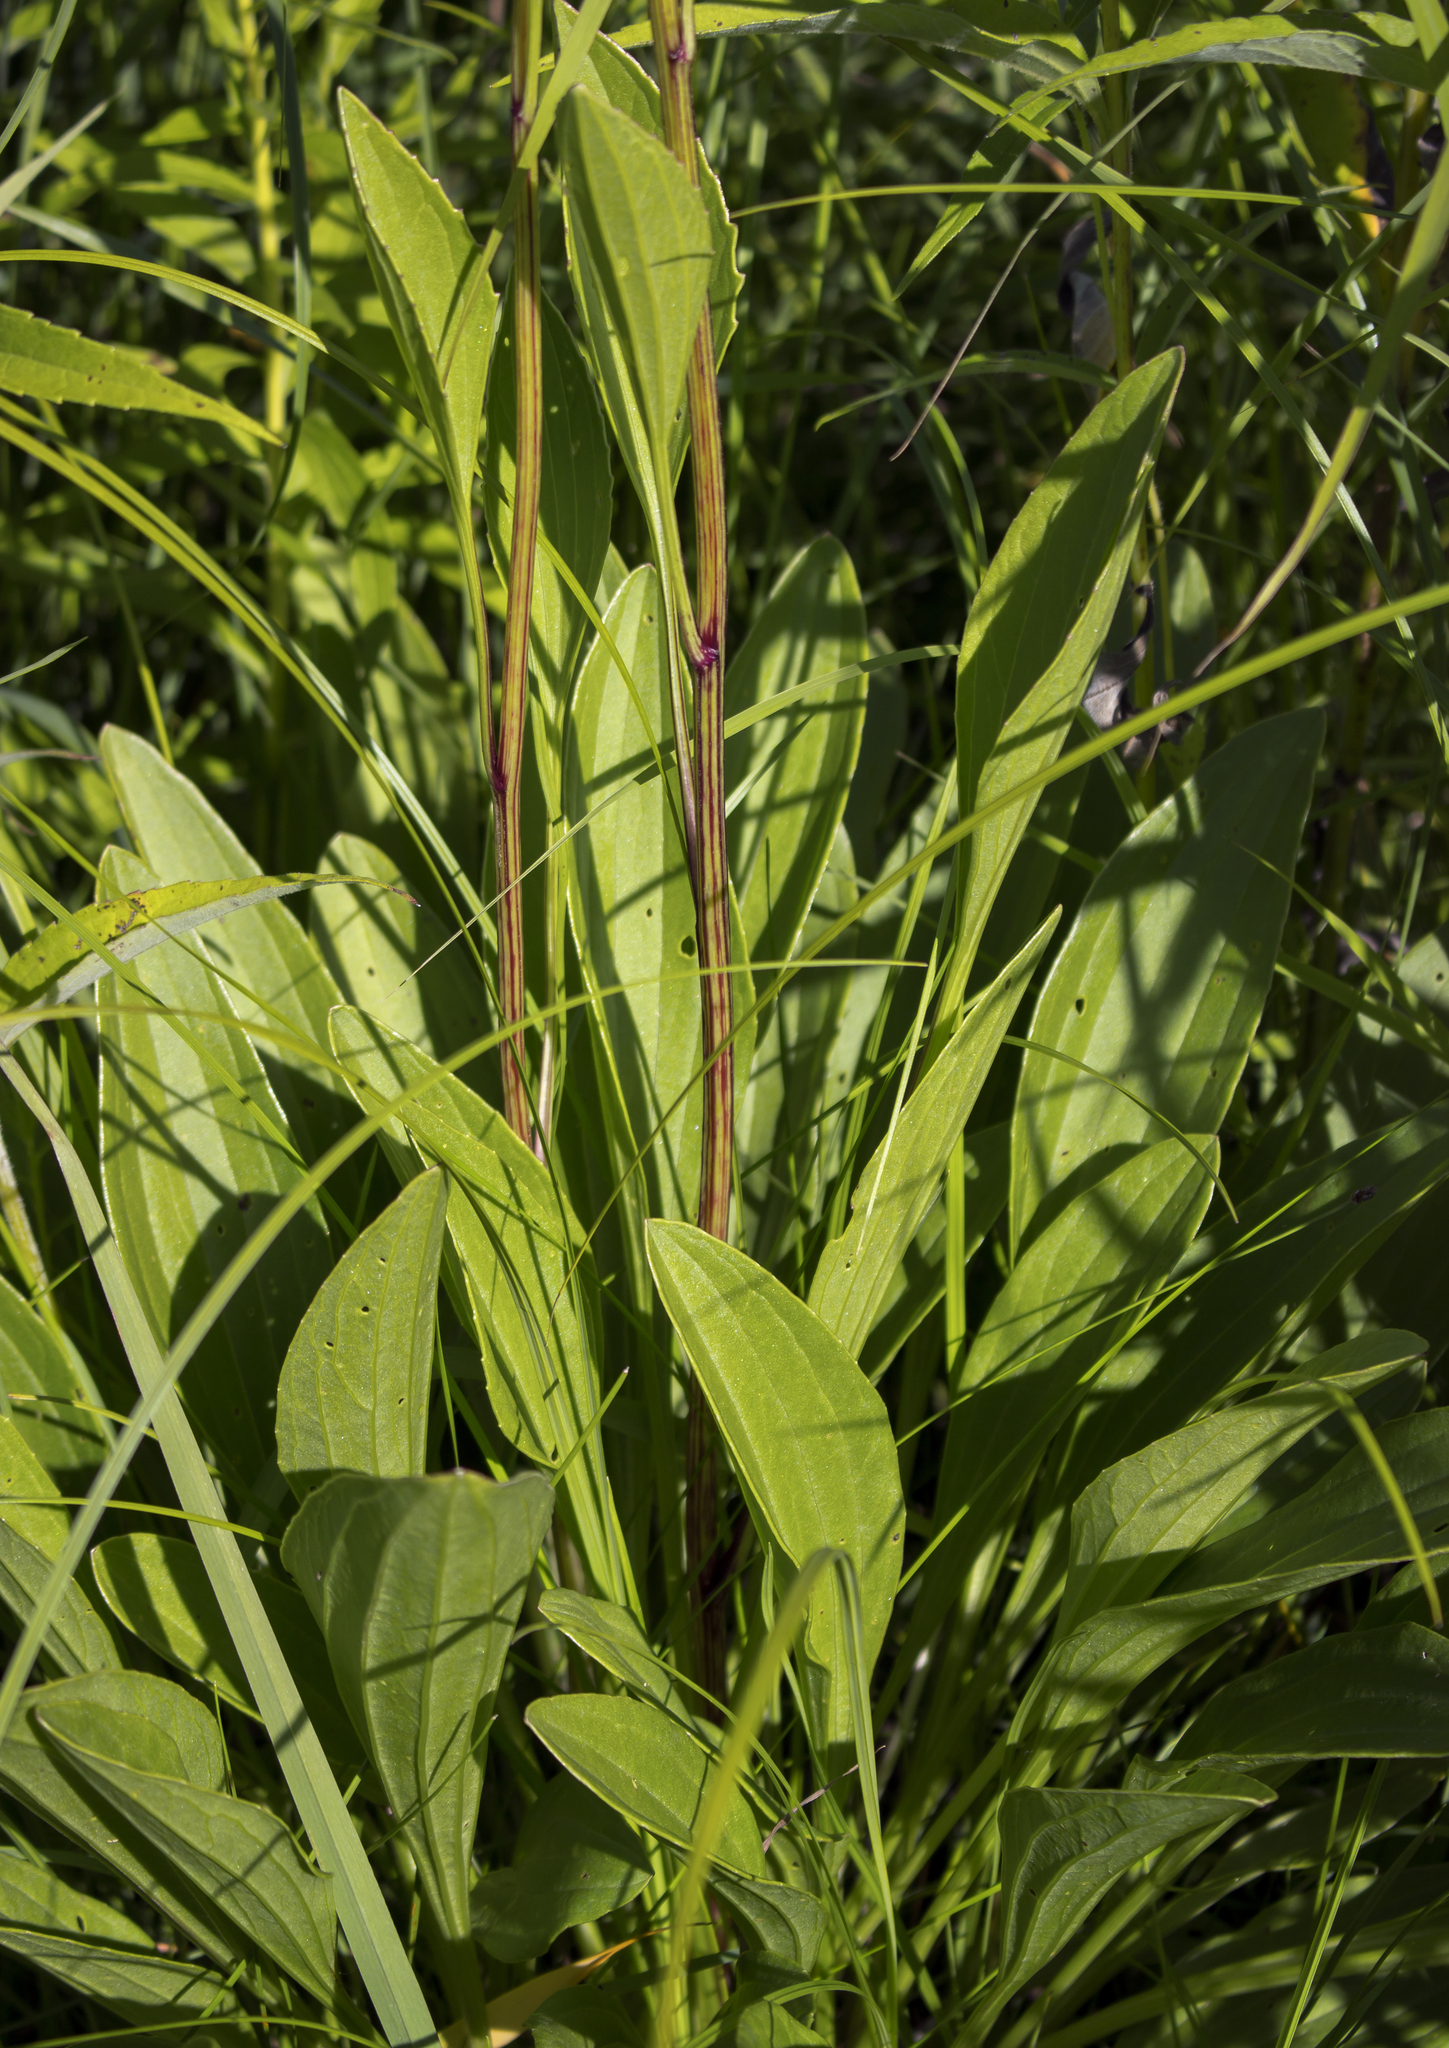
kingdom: Plantae
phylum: Tracheophyta
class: Magnoliopsida
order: Asterales
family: Asteraceae
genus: Arnoglossum
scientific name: Arnoglossum plantagineum
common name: Groove-stemmed indian-plantain
